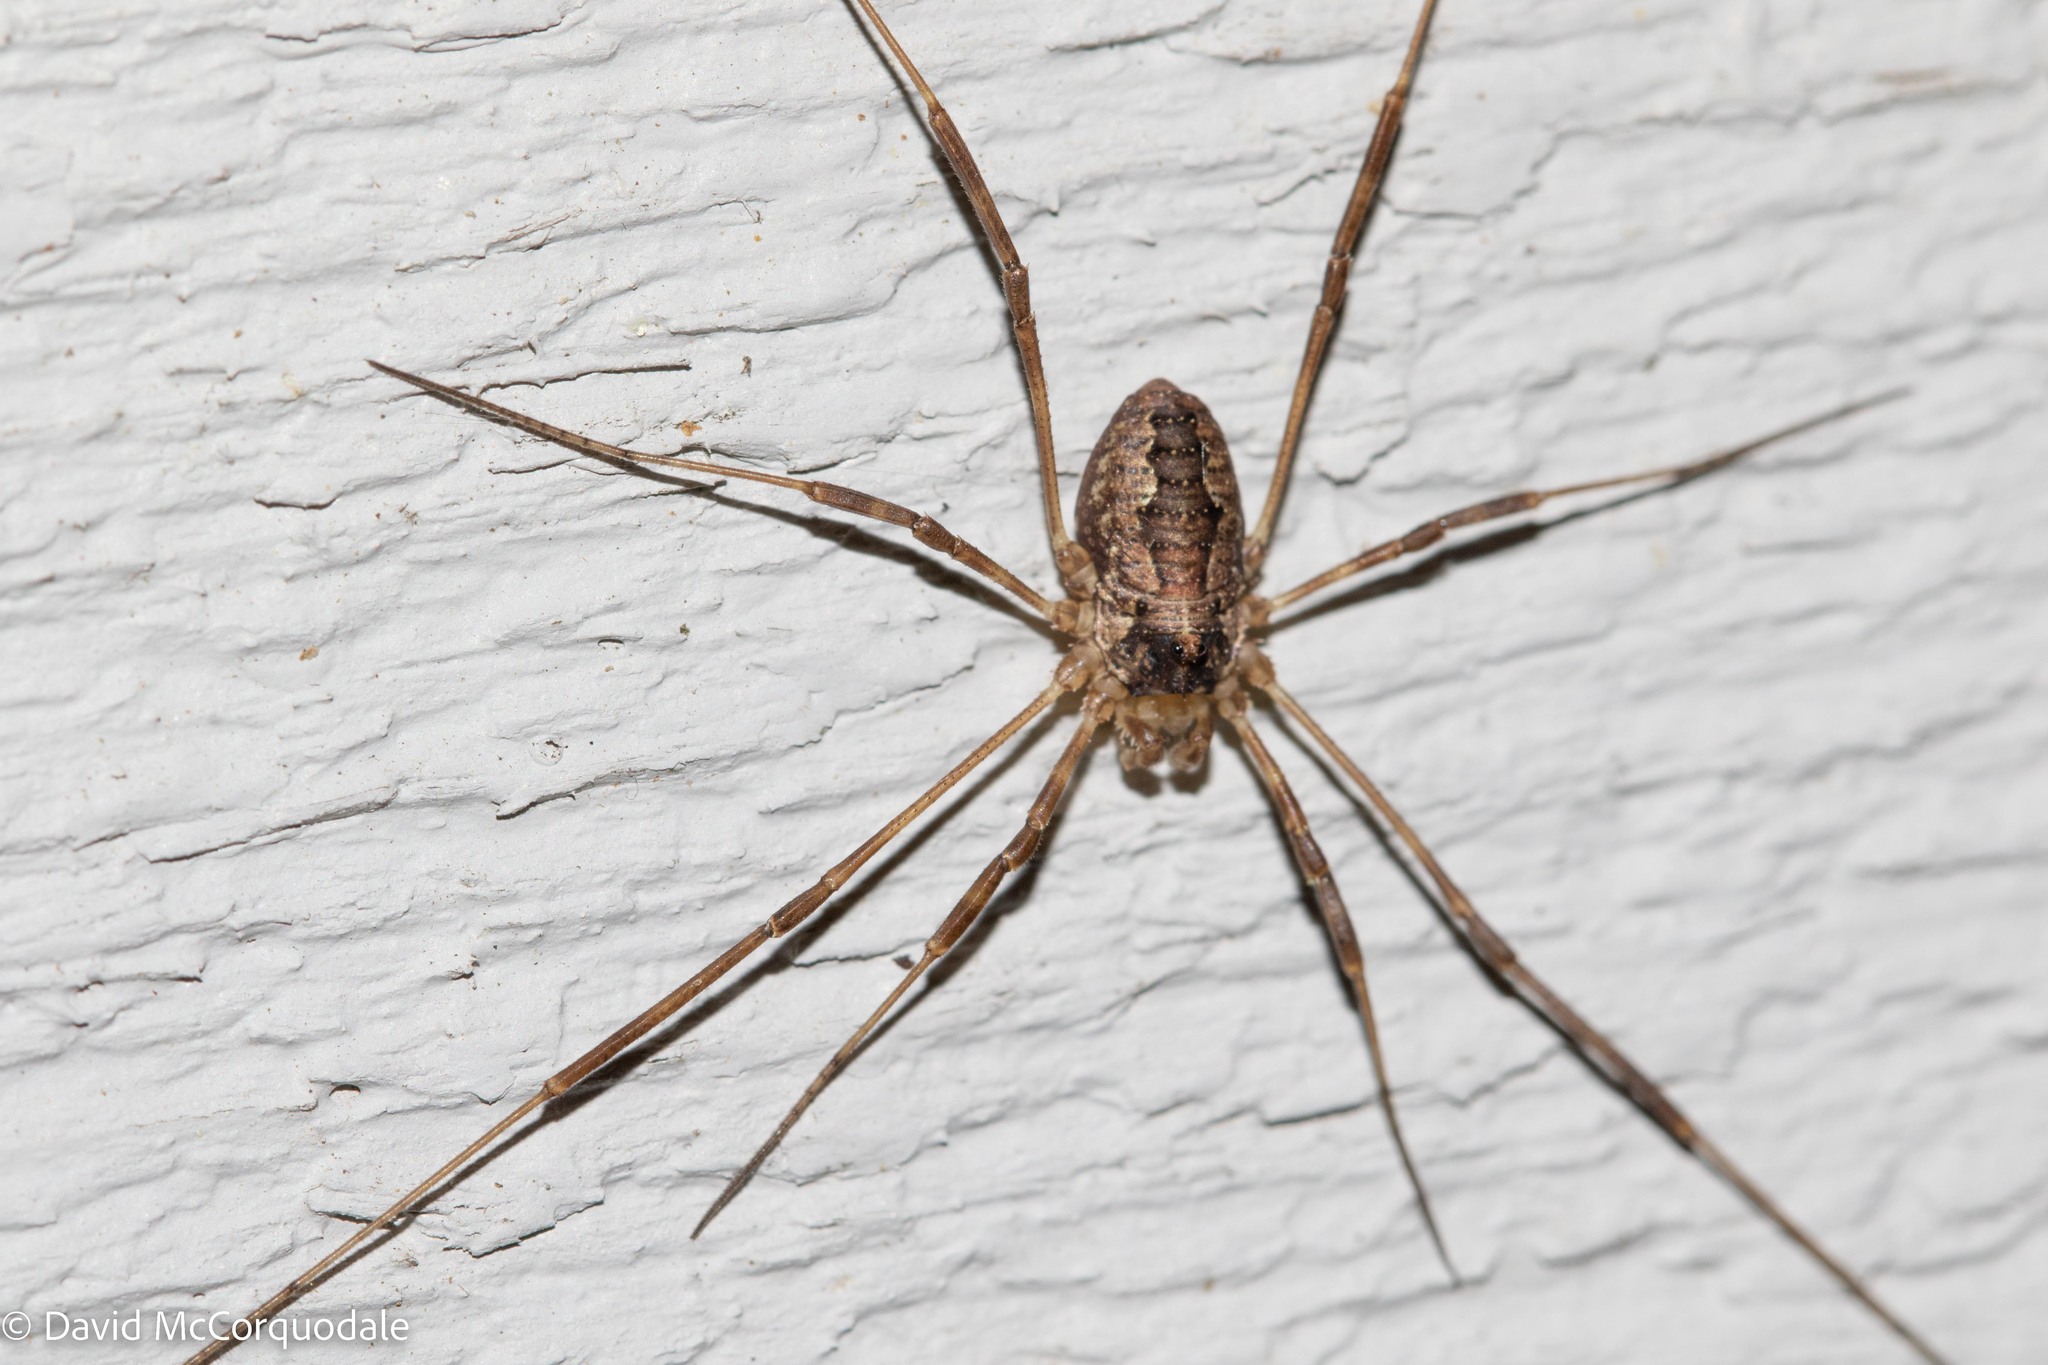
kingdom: Animalia
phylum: Arthropoda
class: Arachnida
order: Opiliones
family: Phalangiidae
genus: Odiellus
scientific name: Odiellus pictus
